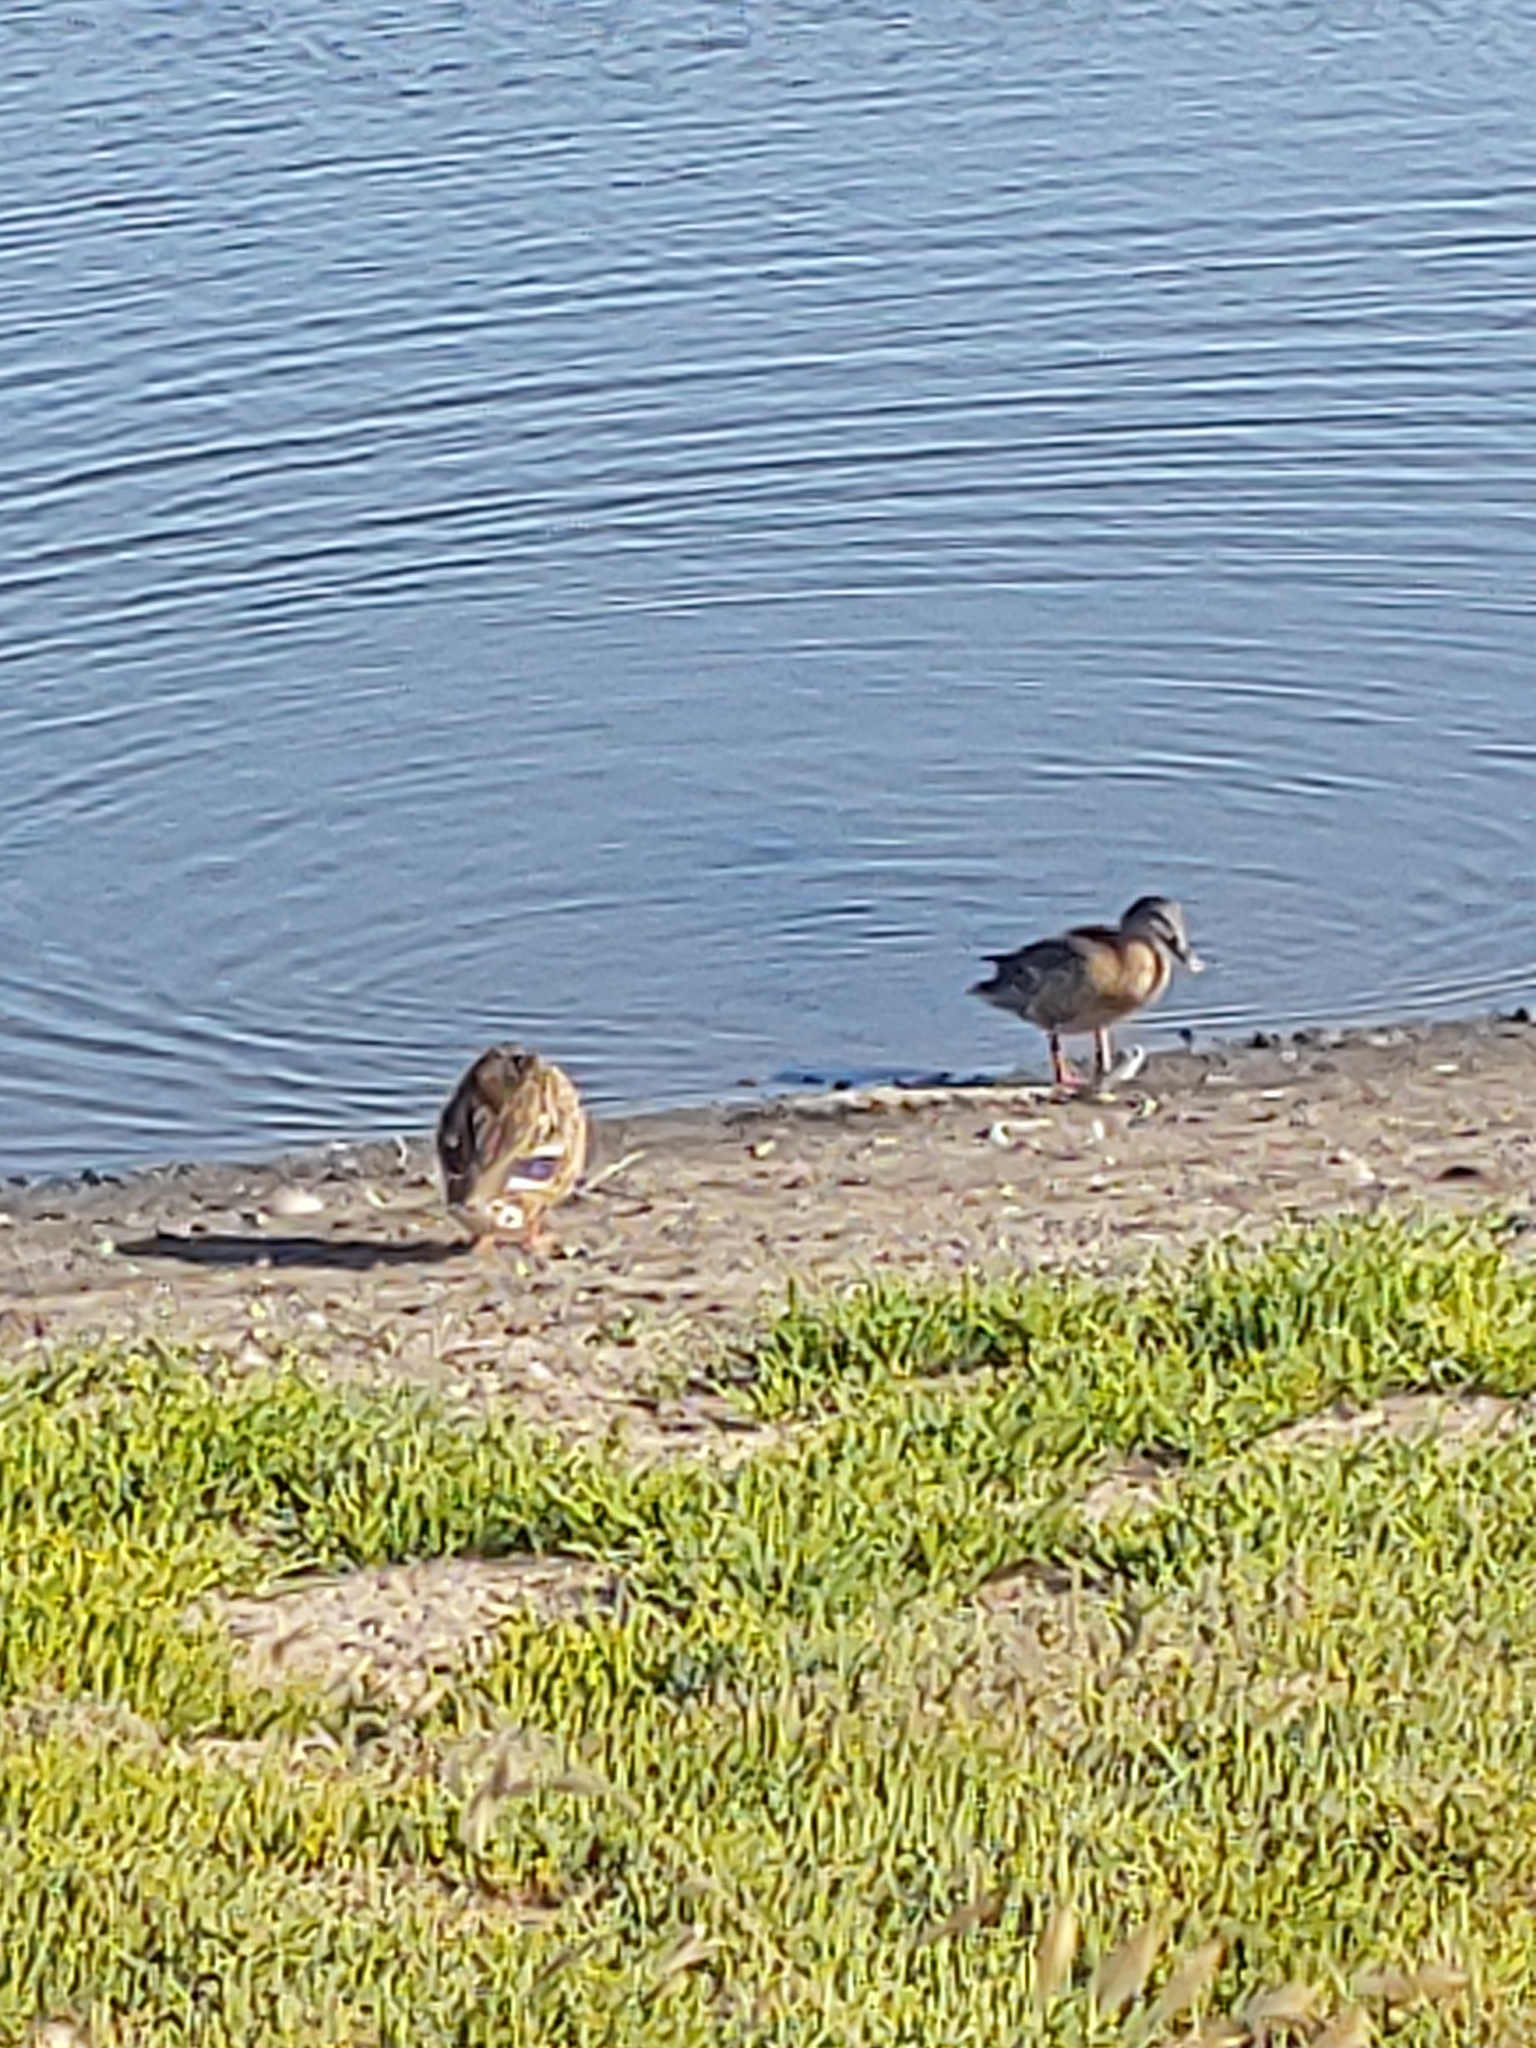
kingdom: Animalia
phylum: Chordata
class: Aves
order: Anseriformes
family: Anatidae
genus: Anas
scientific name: Anas platyrhynchos
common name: Mallard
